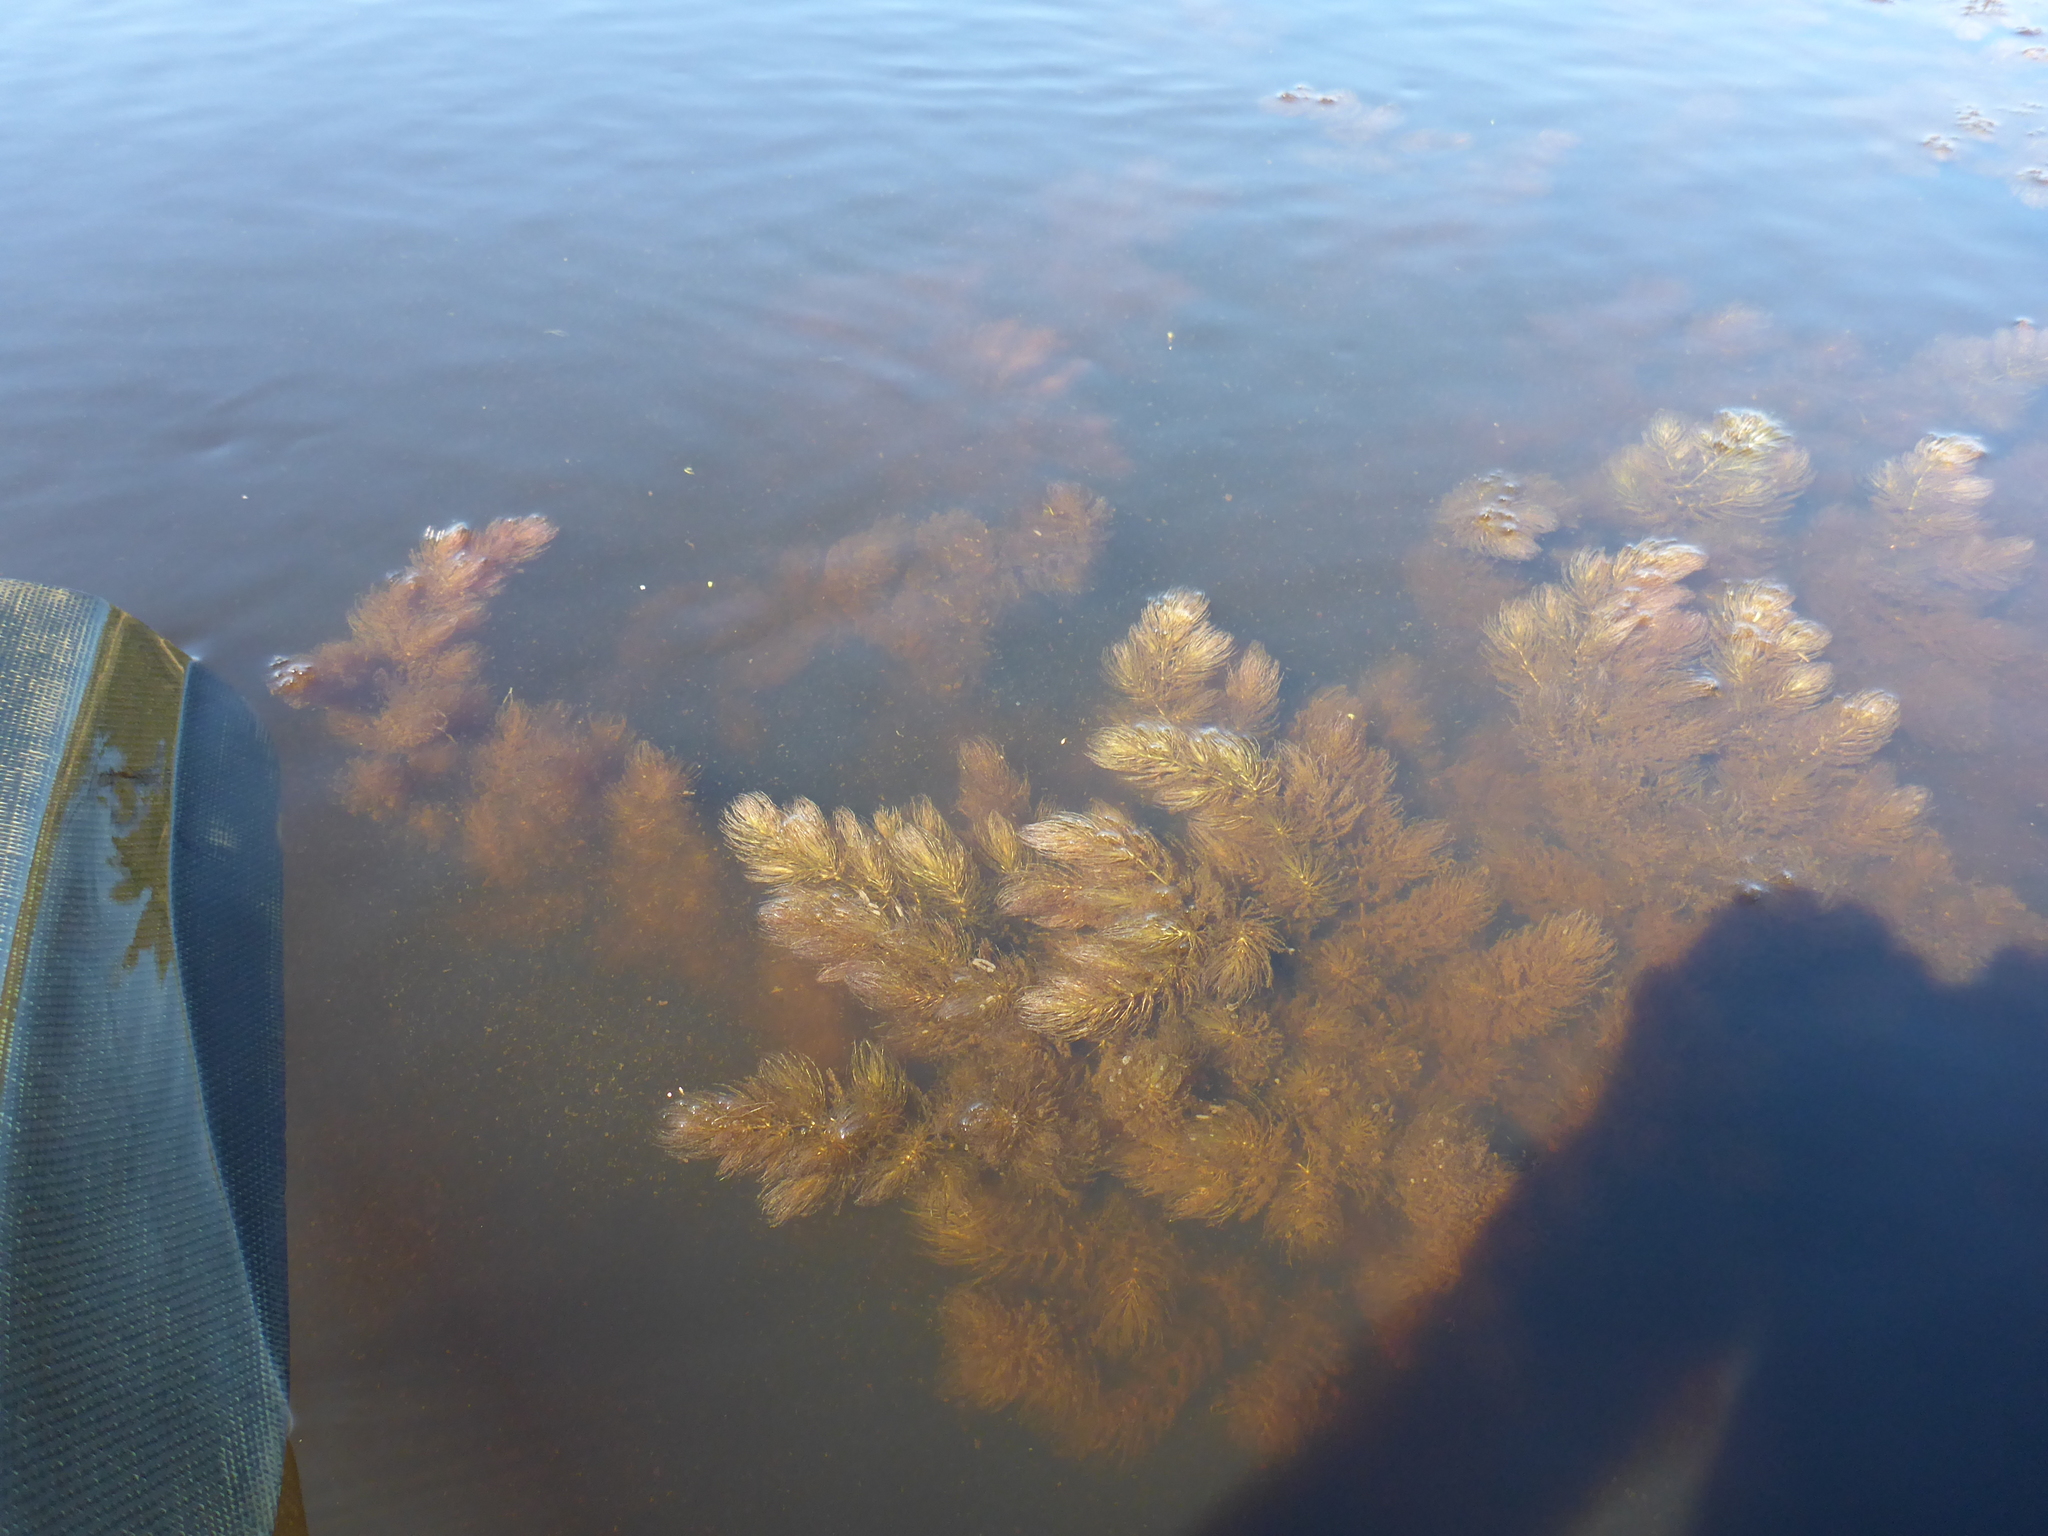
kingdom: Plantae
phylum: Tracheophyta
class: Magnoliopsida
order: Ceratophyllales
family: Ceratophyllaceae
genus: Ceratophyllum
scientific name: Ceratophyllum demersum
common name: Rigid hornwort
